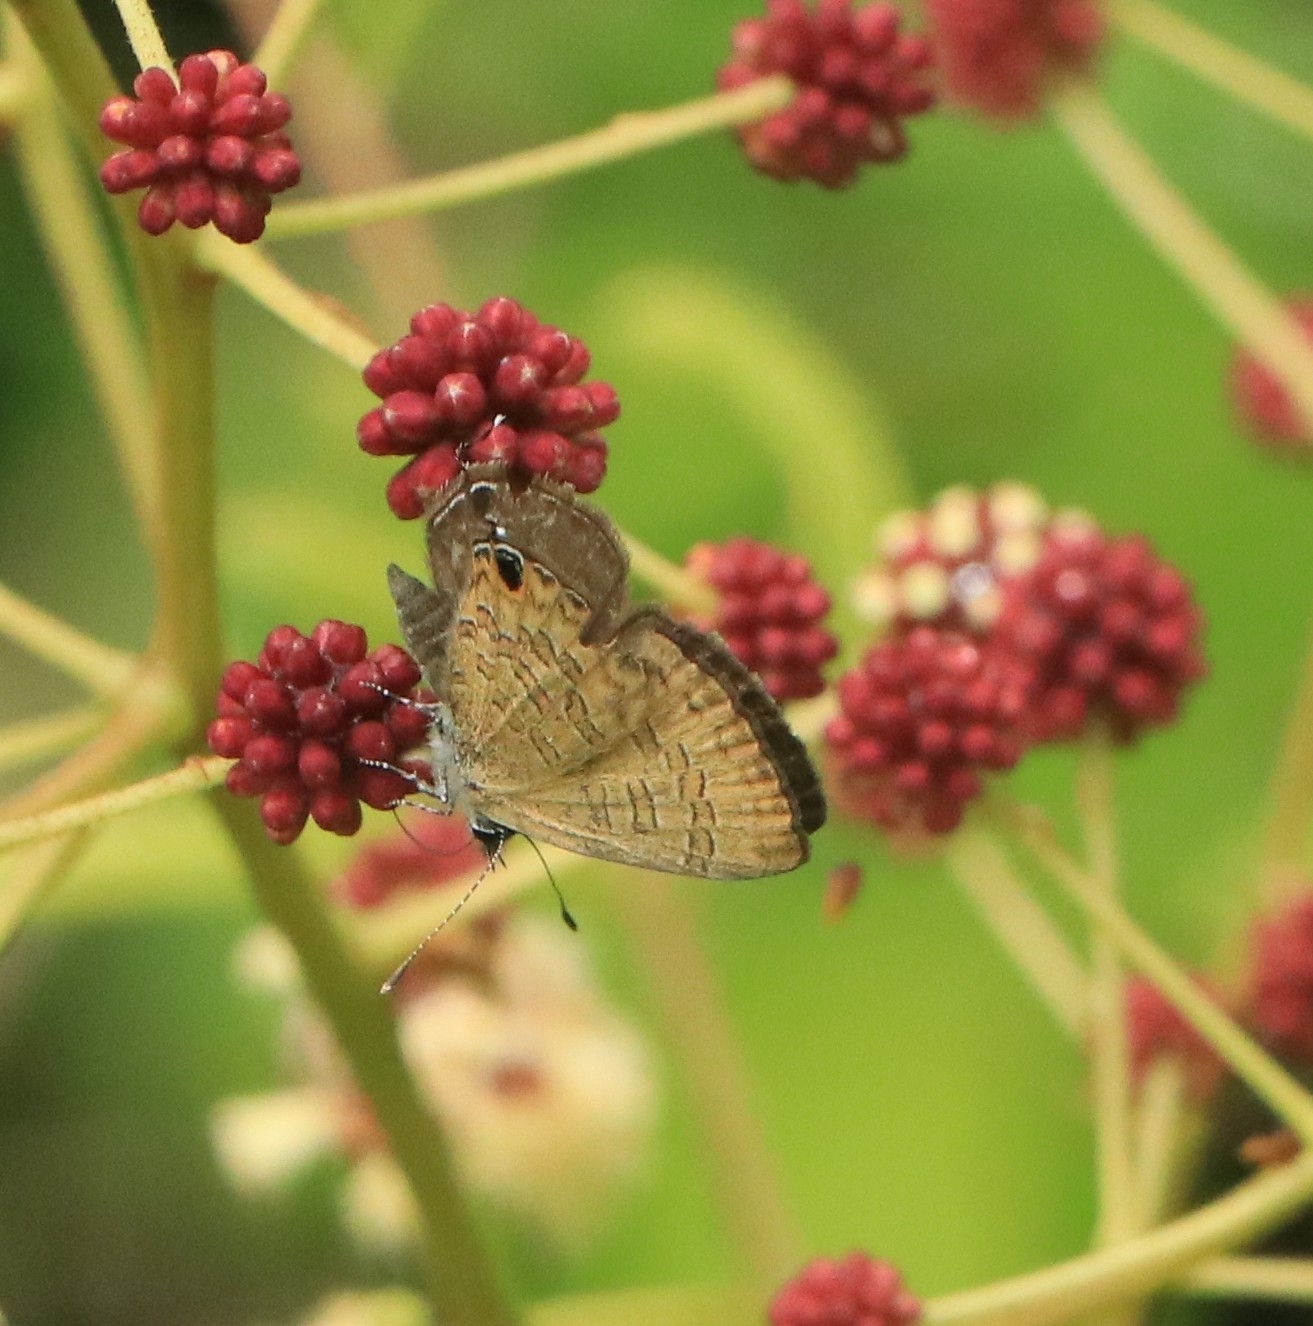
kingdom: Animalia
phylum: Arthropoda
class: Insecta
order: Lepidoptera
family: Lycaenidae
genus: Prosotas
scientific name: Prosotas nora
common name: Common line blue
